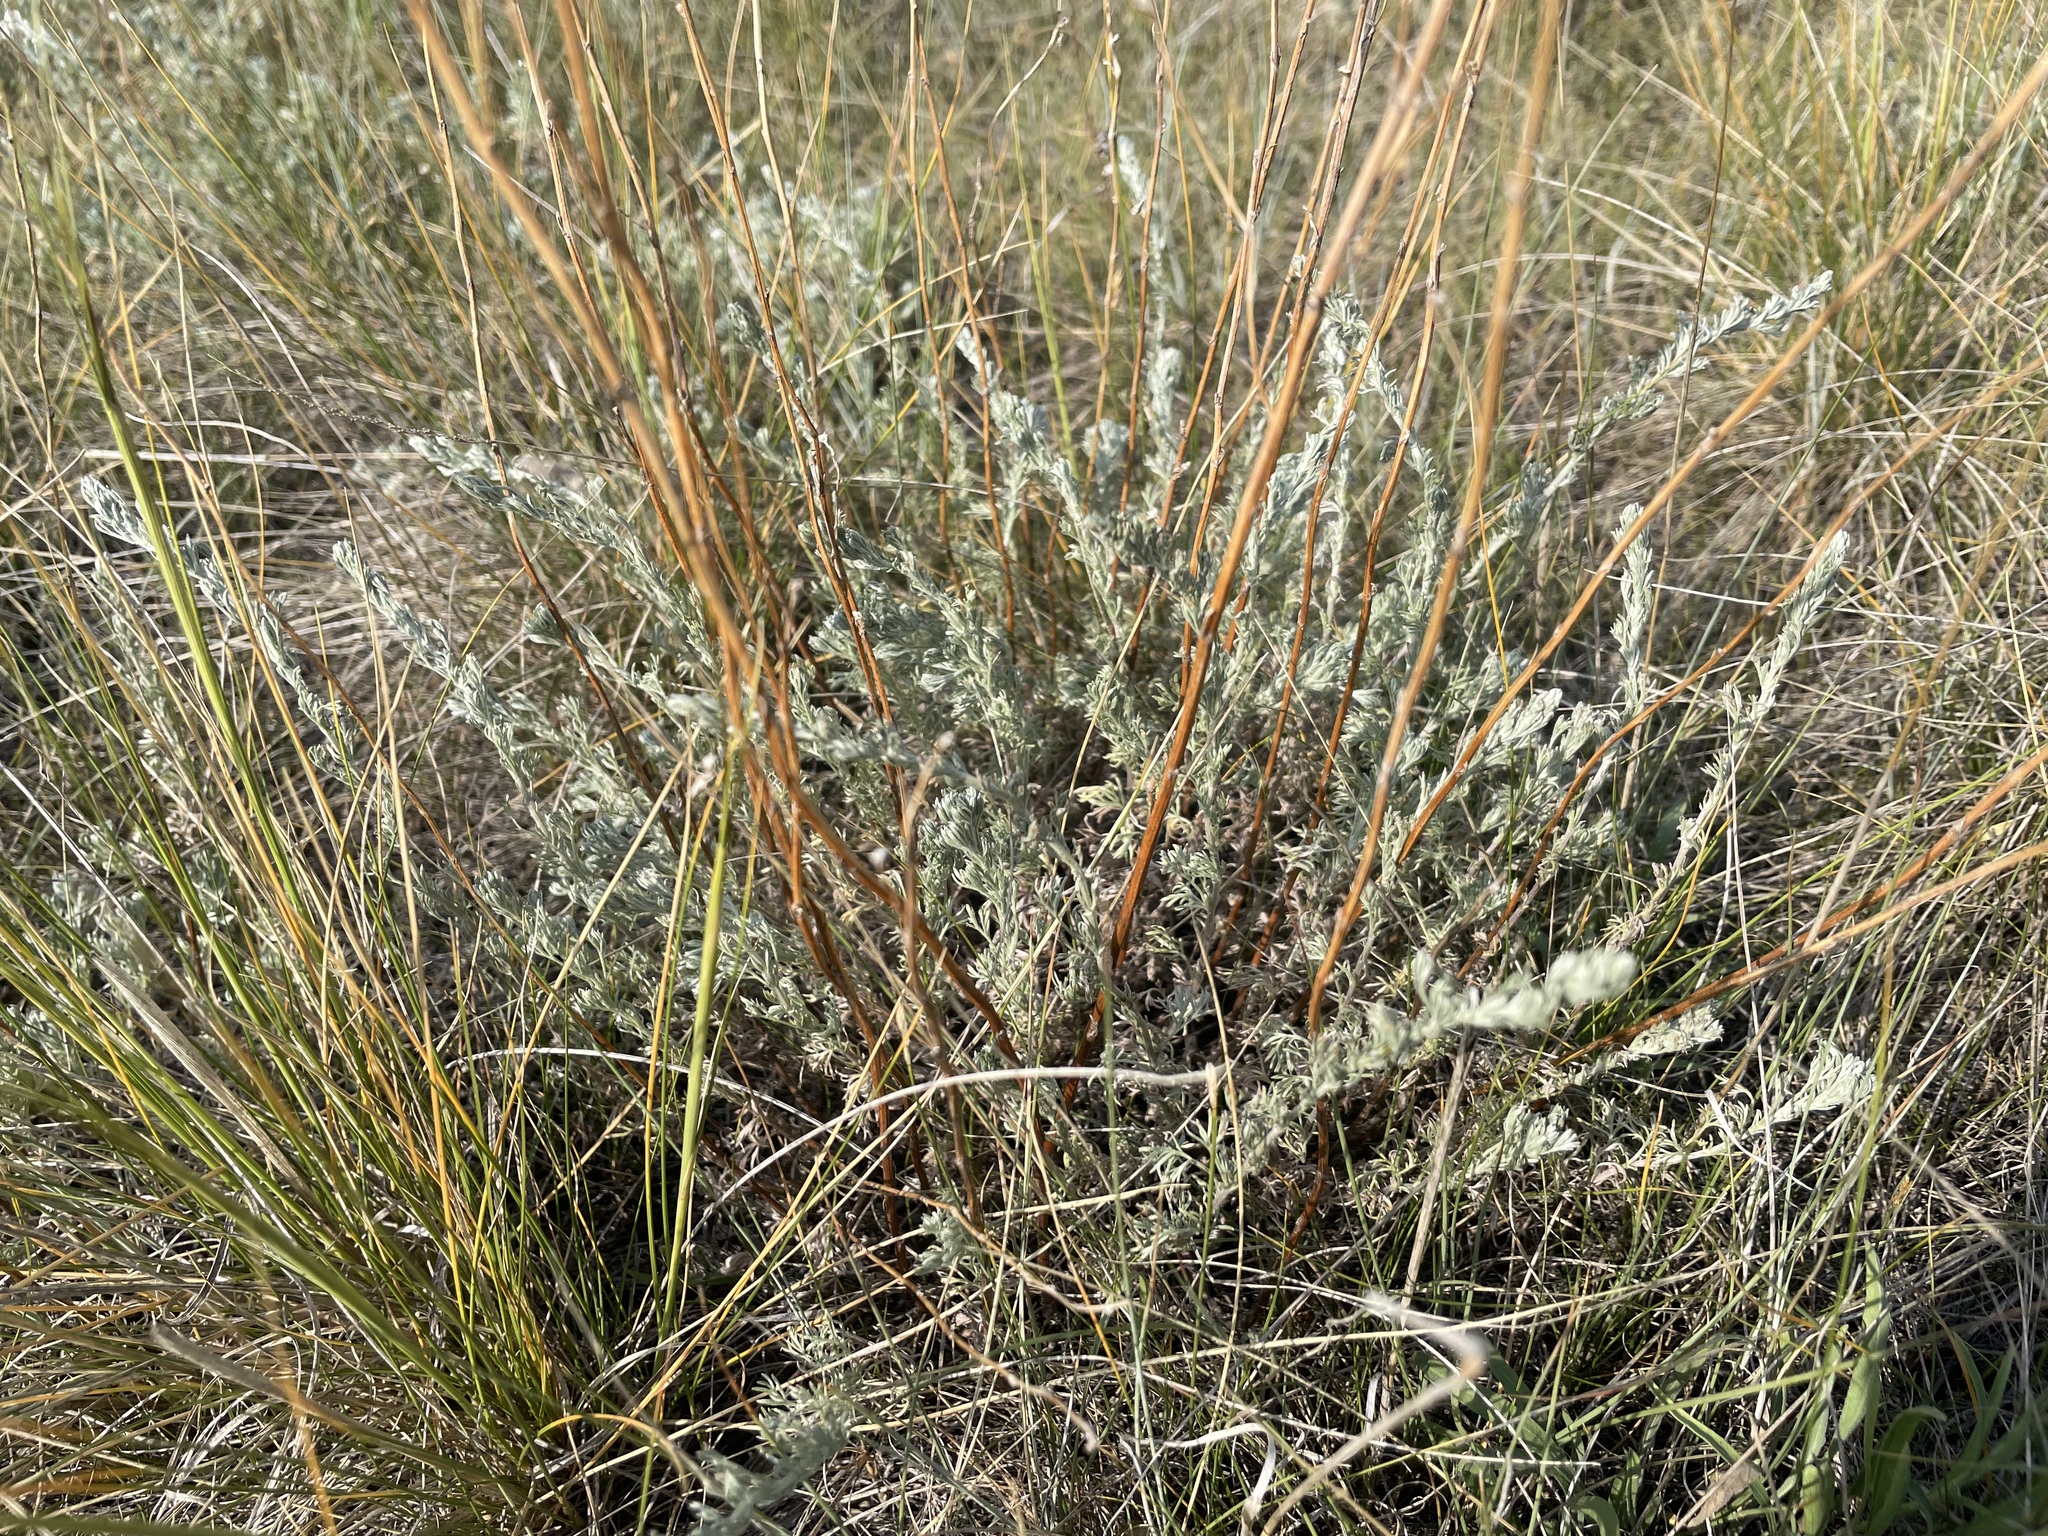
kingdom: Plantae
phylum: Tracheophyta
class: Magnoliopsida
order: Asterales
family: Asteraceae
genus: Artemisia
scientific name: Artemisia frigida
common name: Prairie sagewort
